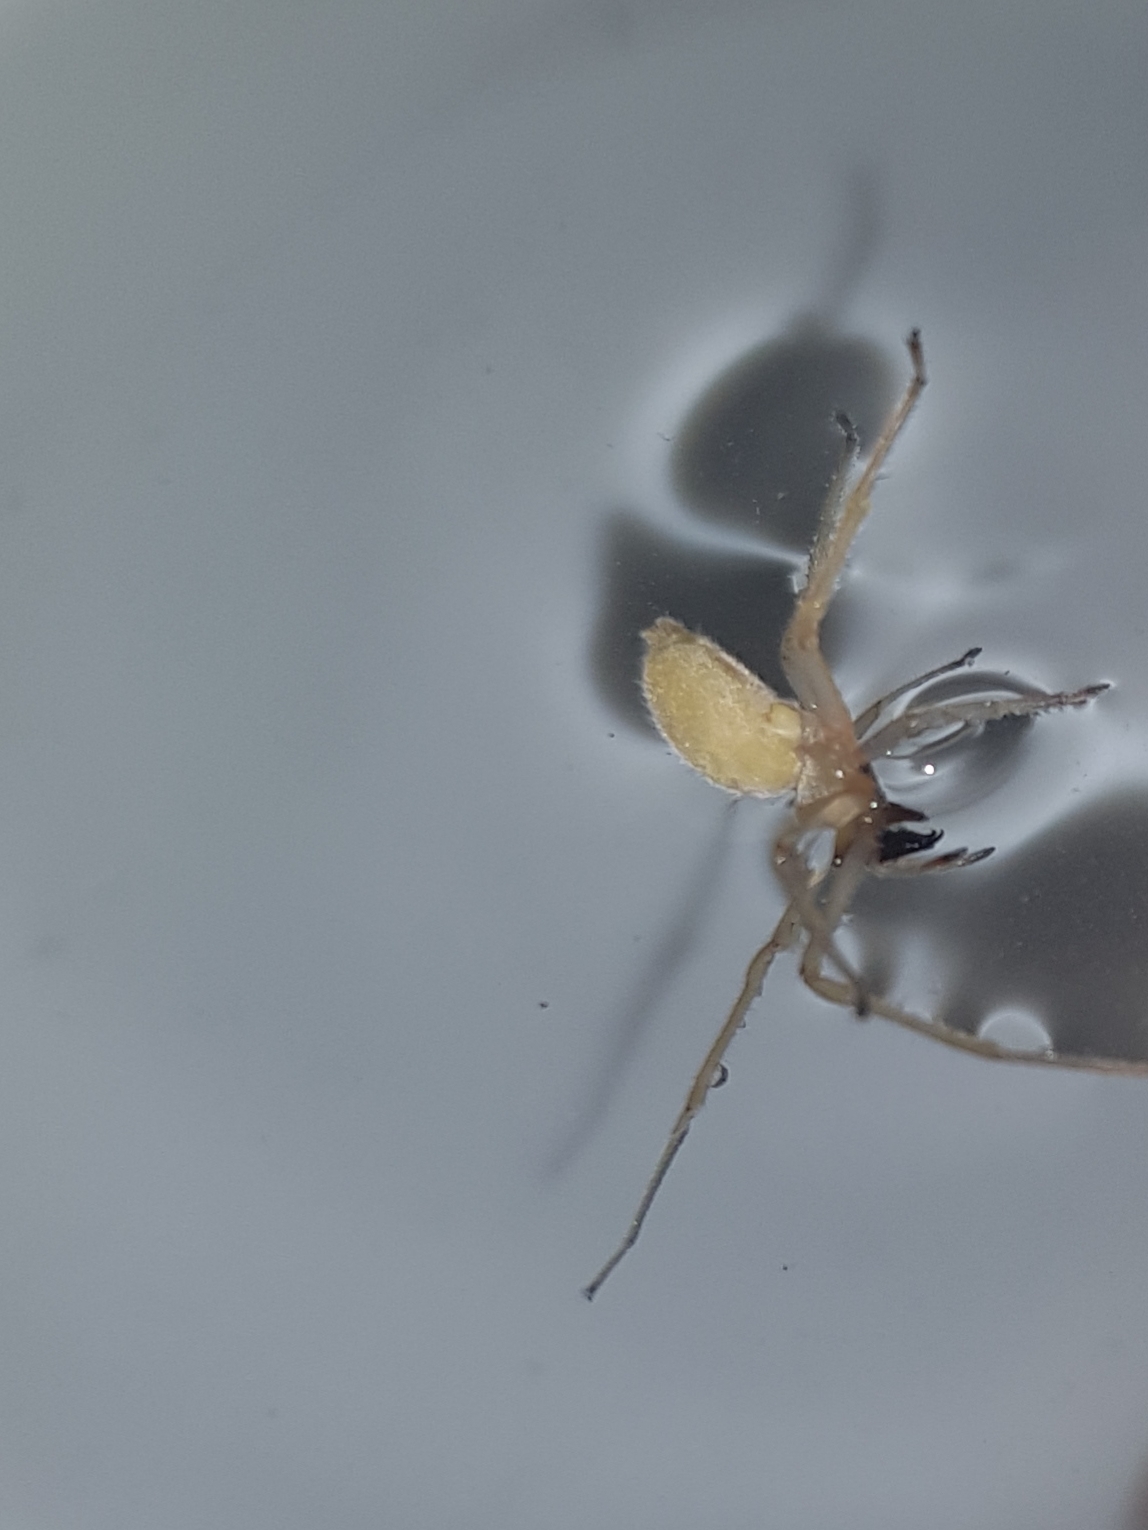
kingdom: Animalia
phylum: Arthropoda
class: Arachnida
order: Araneae
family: Cheiracanthiidae
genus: Cheiracanthium
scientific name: Cheiracanthium inclusum
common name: Long-legged sac spiders
